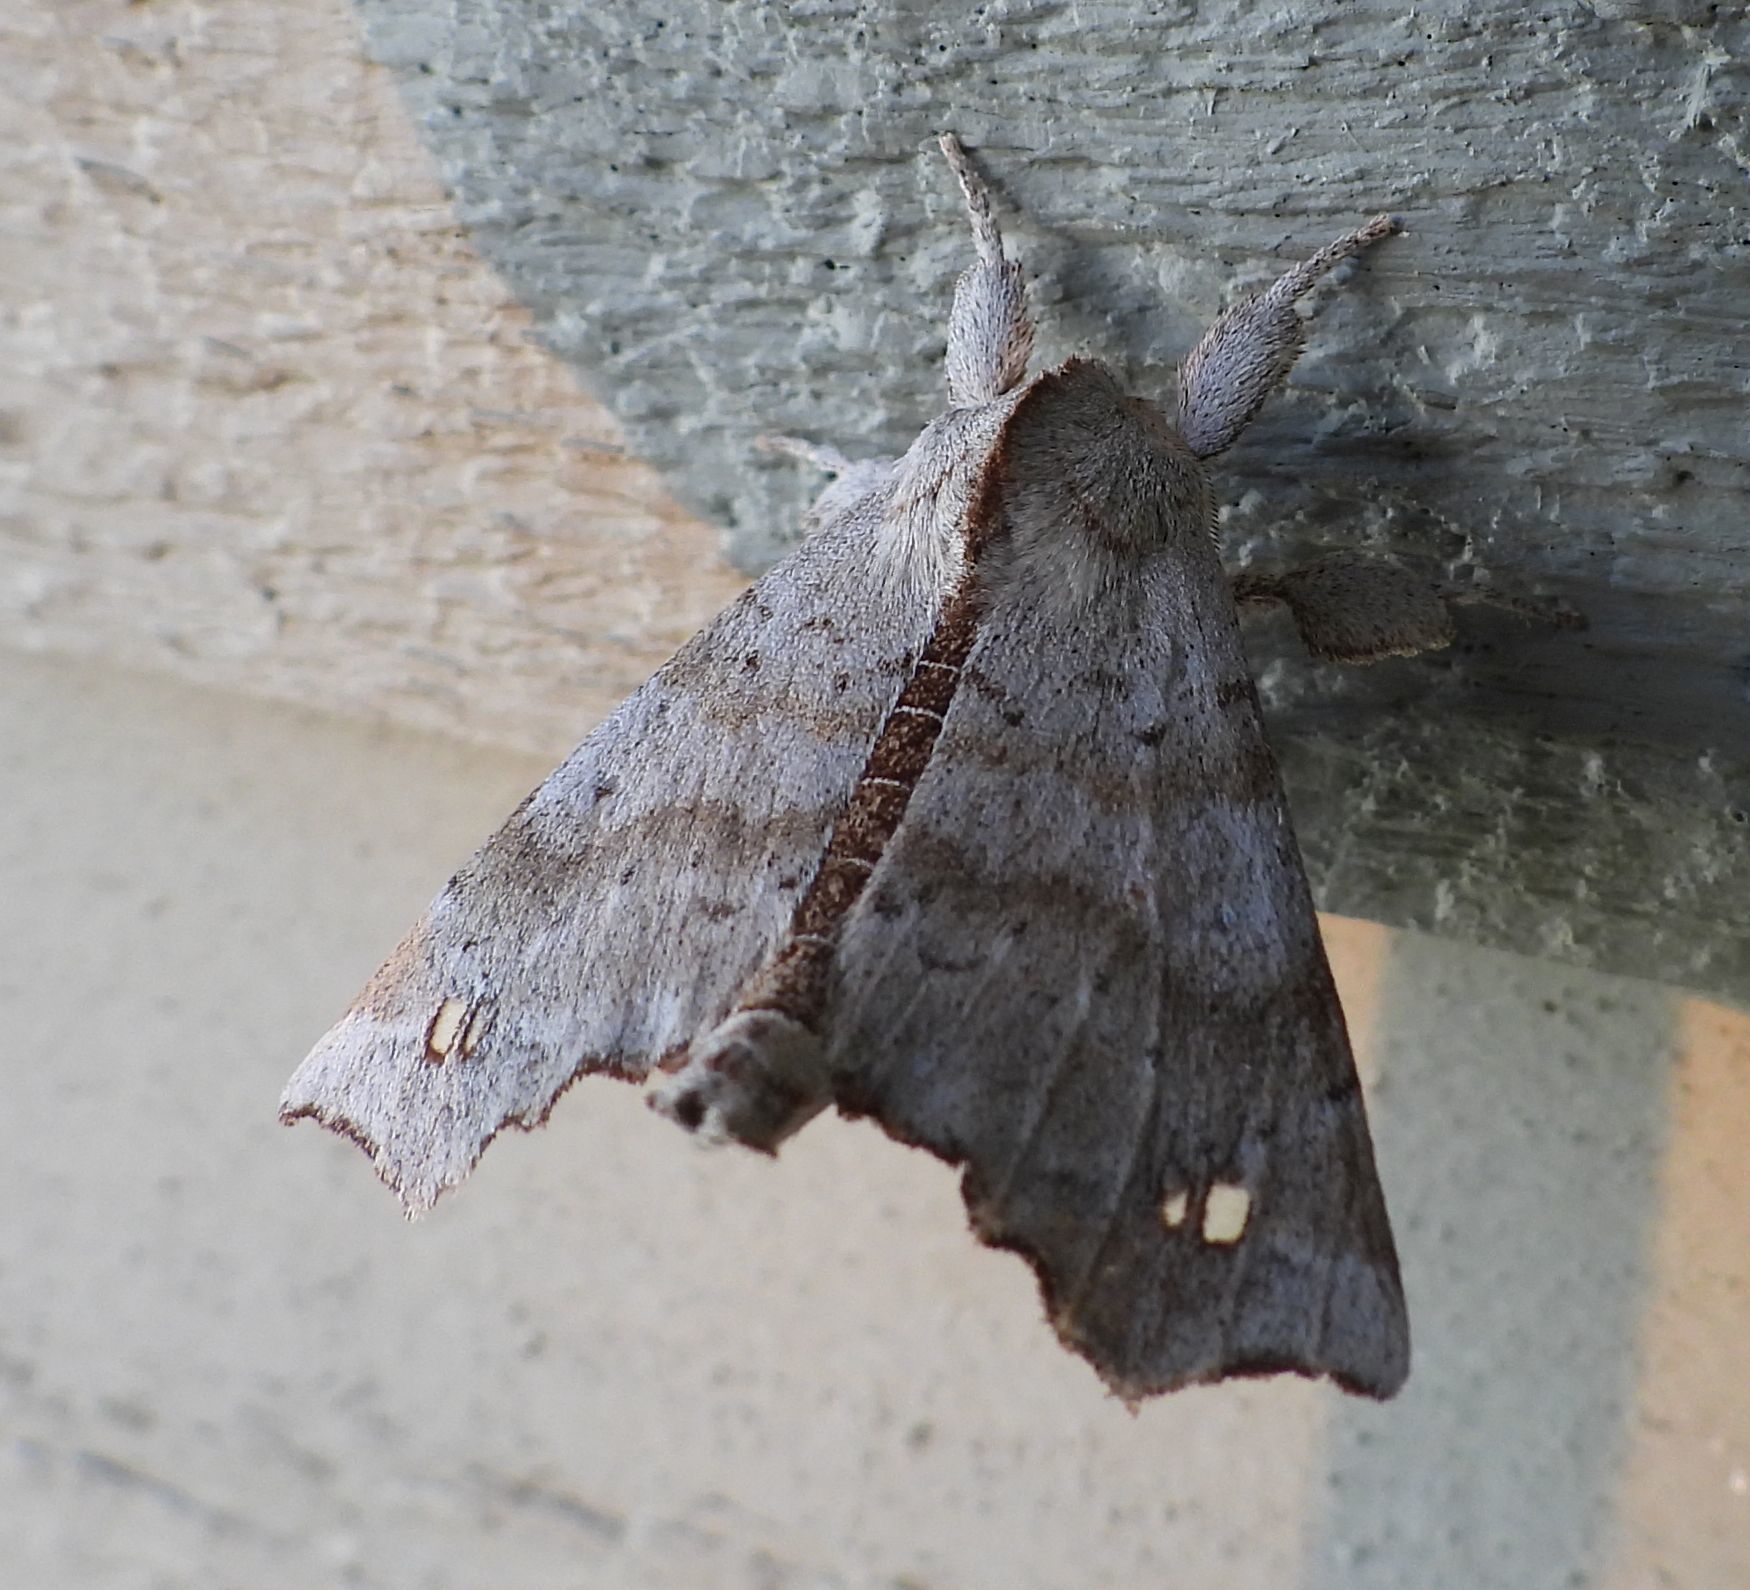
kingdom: Animalia
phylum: Arthropoda
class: Insecta
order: Lepidoptera
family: Apatelodidae
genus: Olceclostera
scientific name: Olceclostera angelica
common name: Angel moth
